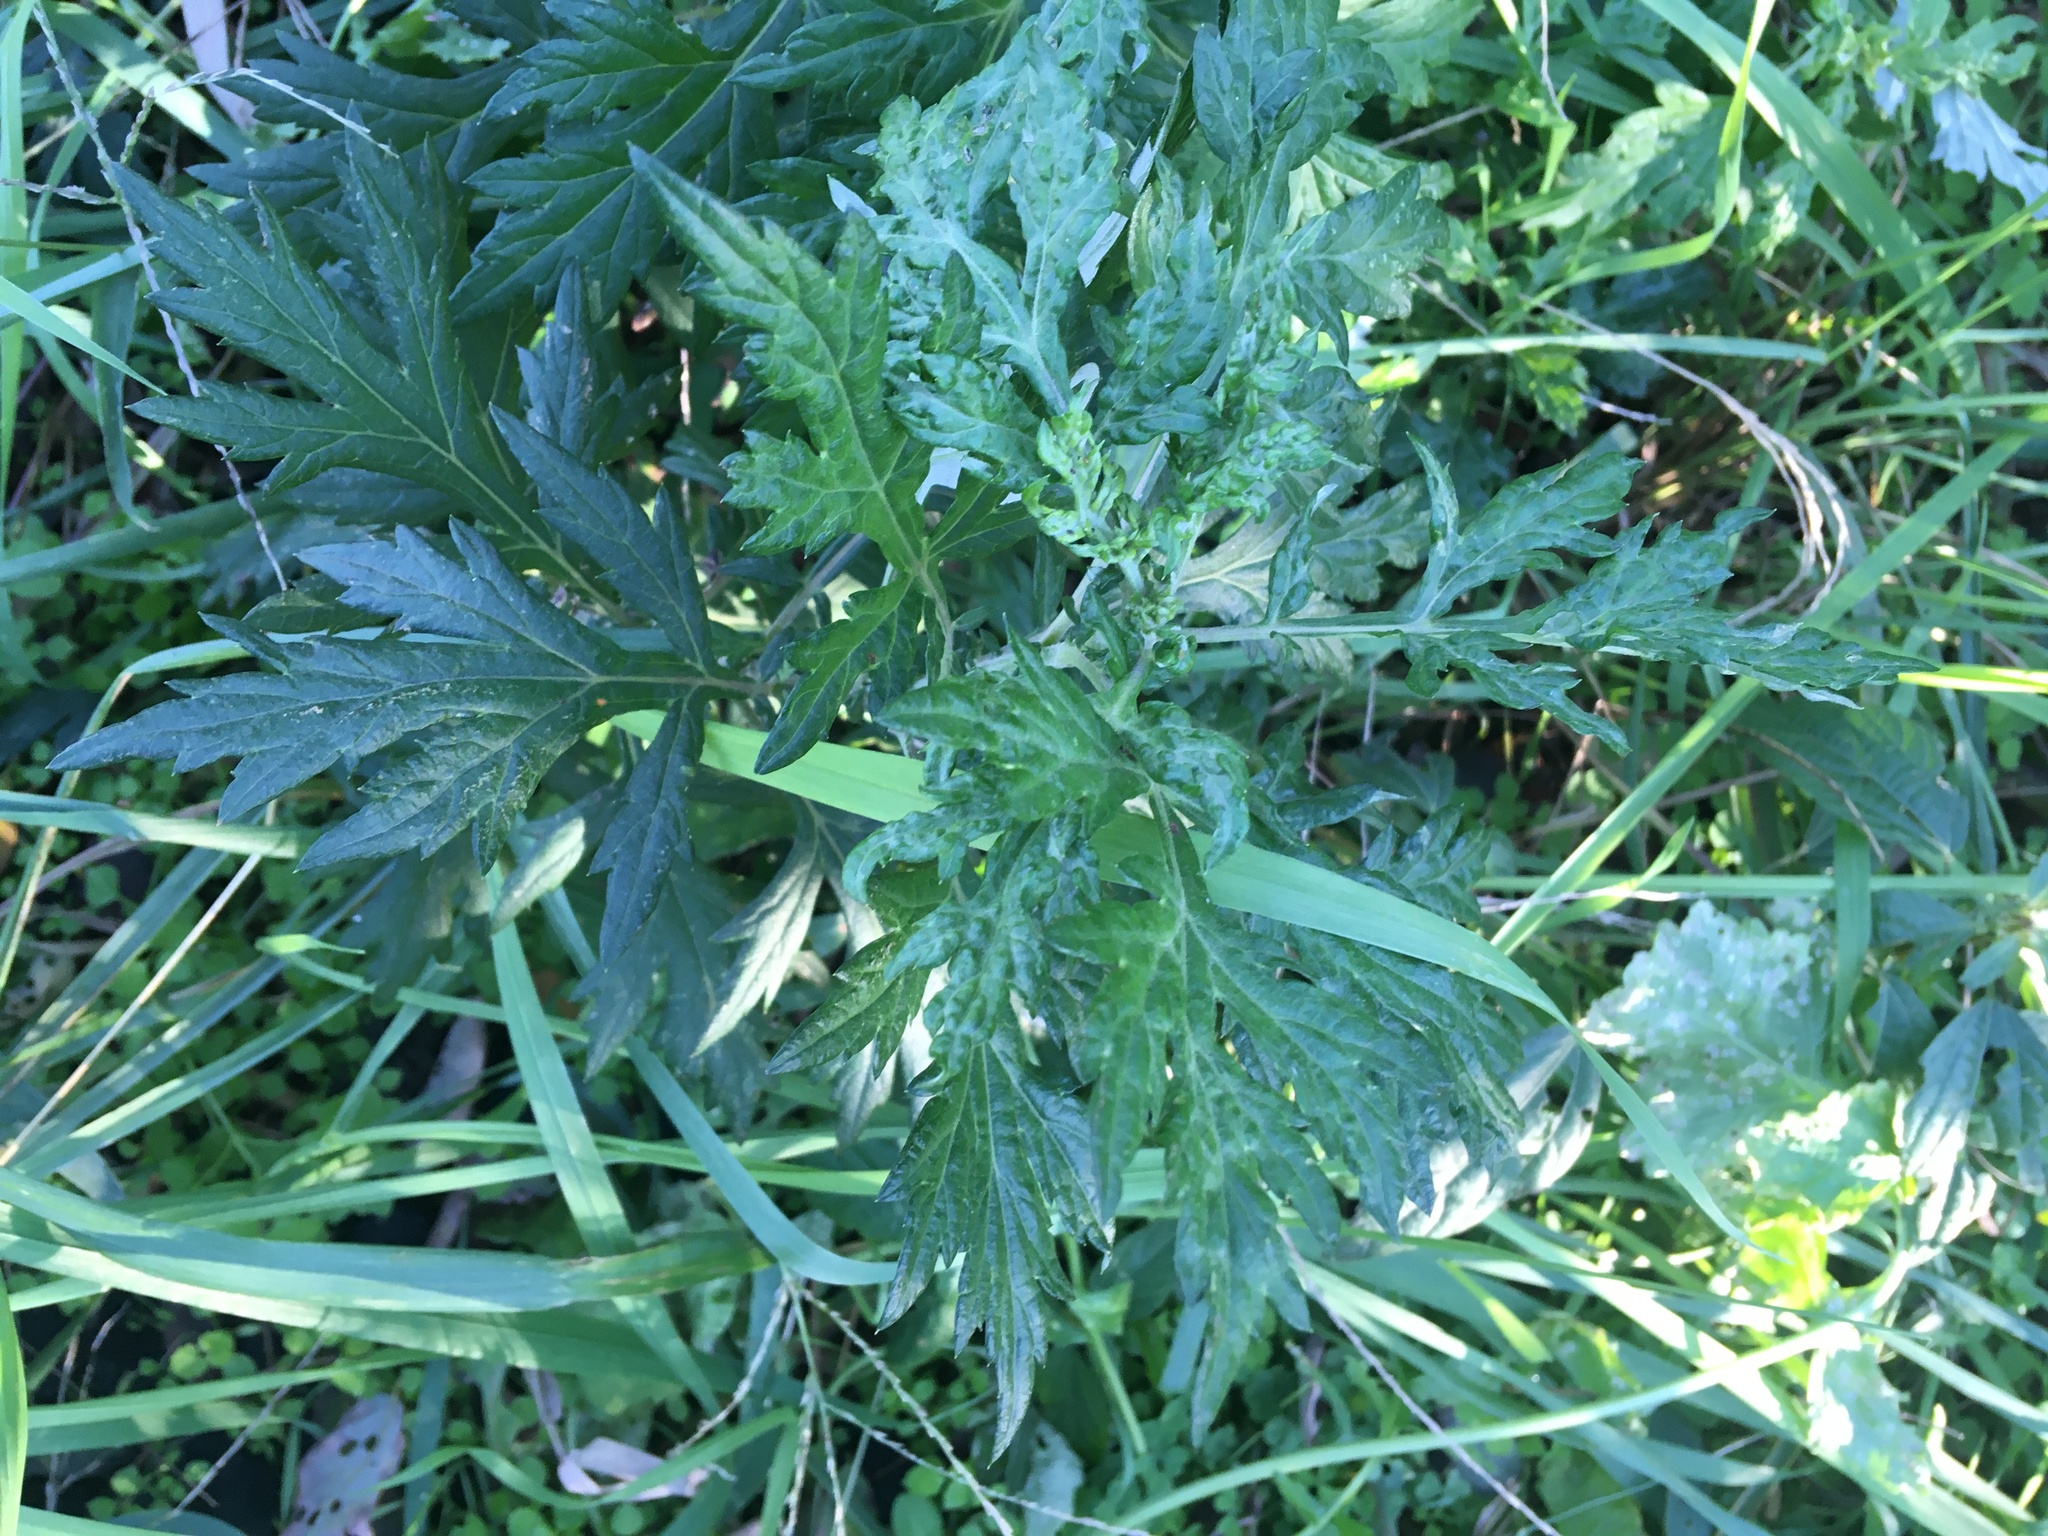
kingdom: Plantae
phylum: Tracheophyta
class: Magnoliopsida
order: Asterales
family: Asteraceae
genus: Artemisia
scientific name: Artemisia vulgaris
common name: Mugwort
